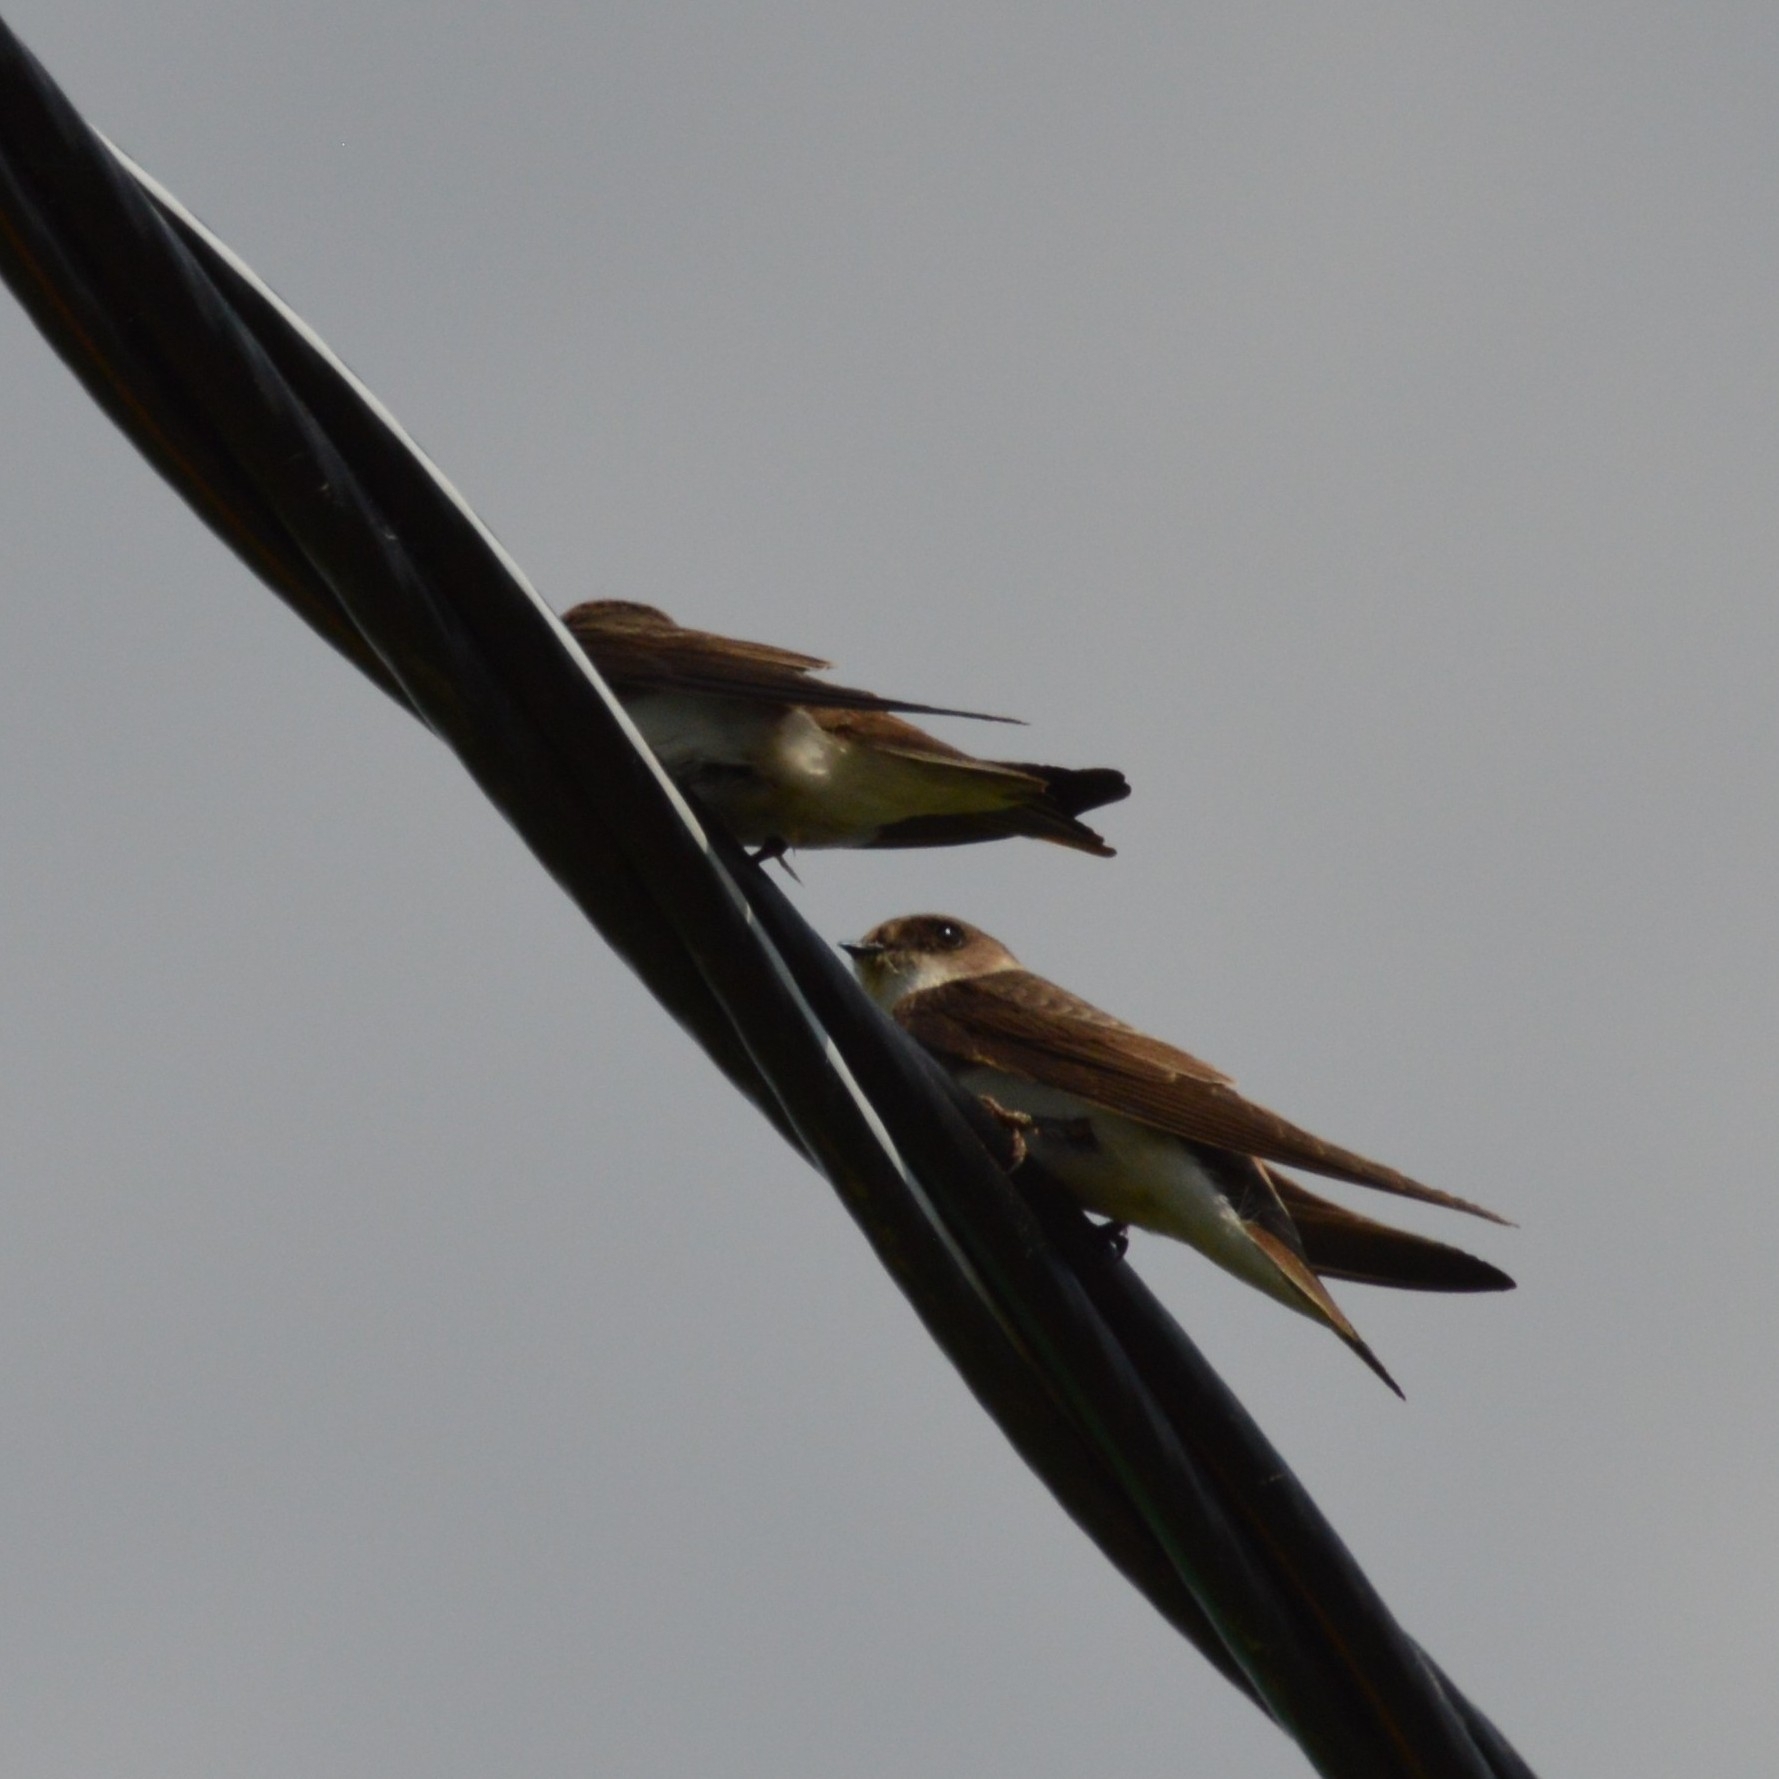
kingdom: Animalia
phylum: Chordata
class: Aves
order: Passeriformes
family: Hirundinidae
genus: Riparia
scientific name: Riparia riparia
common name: Sand martin
